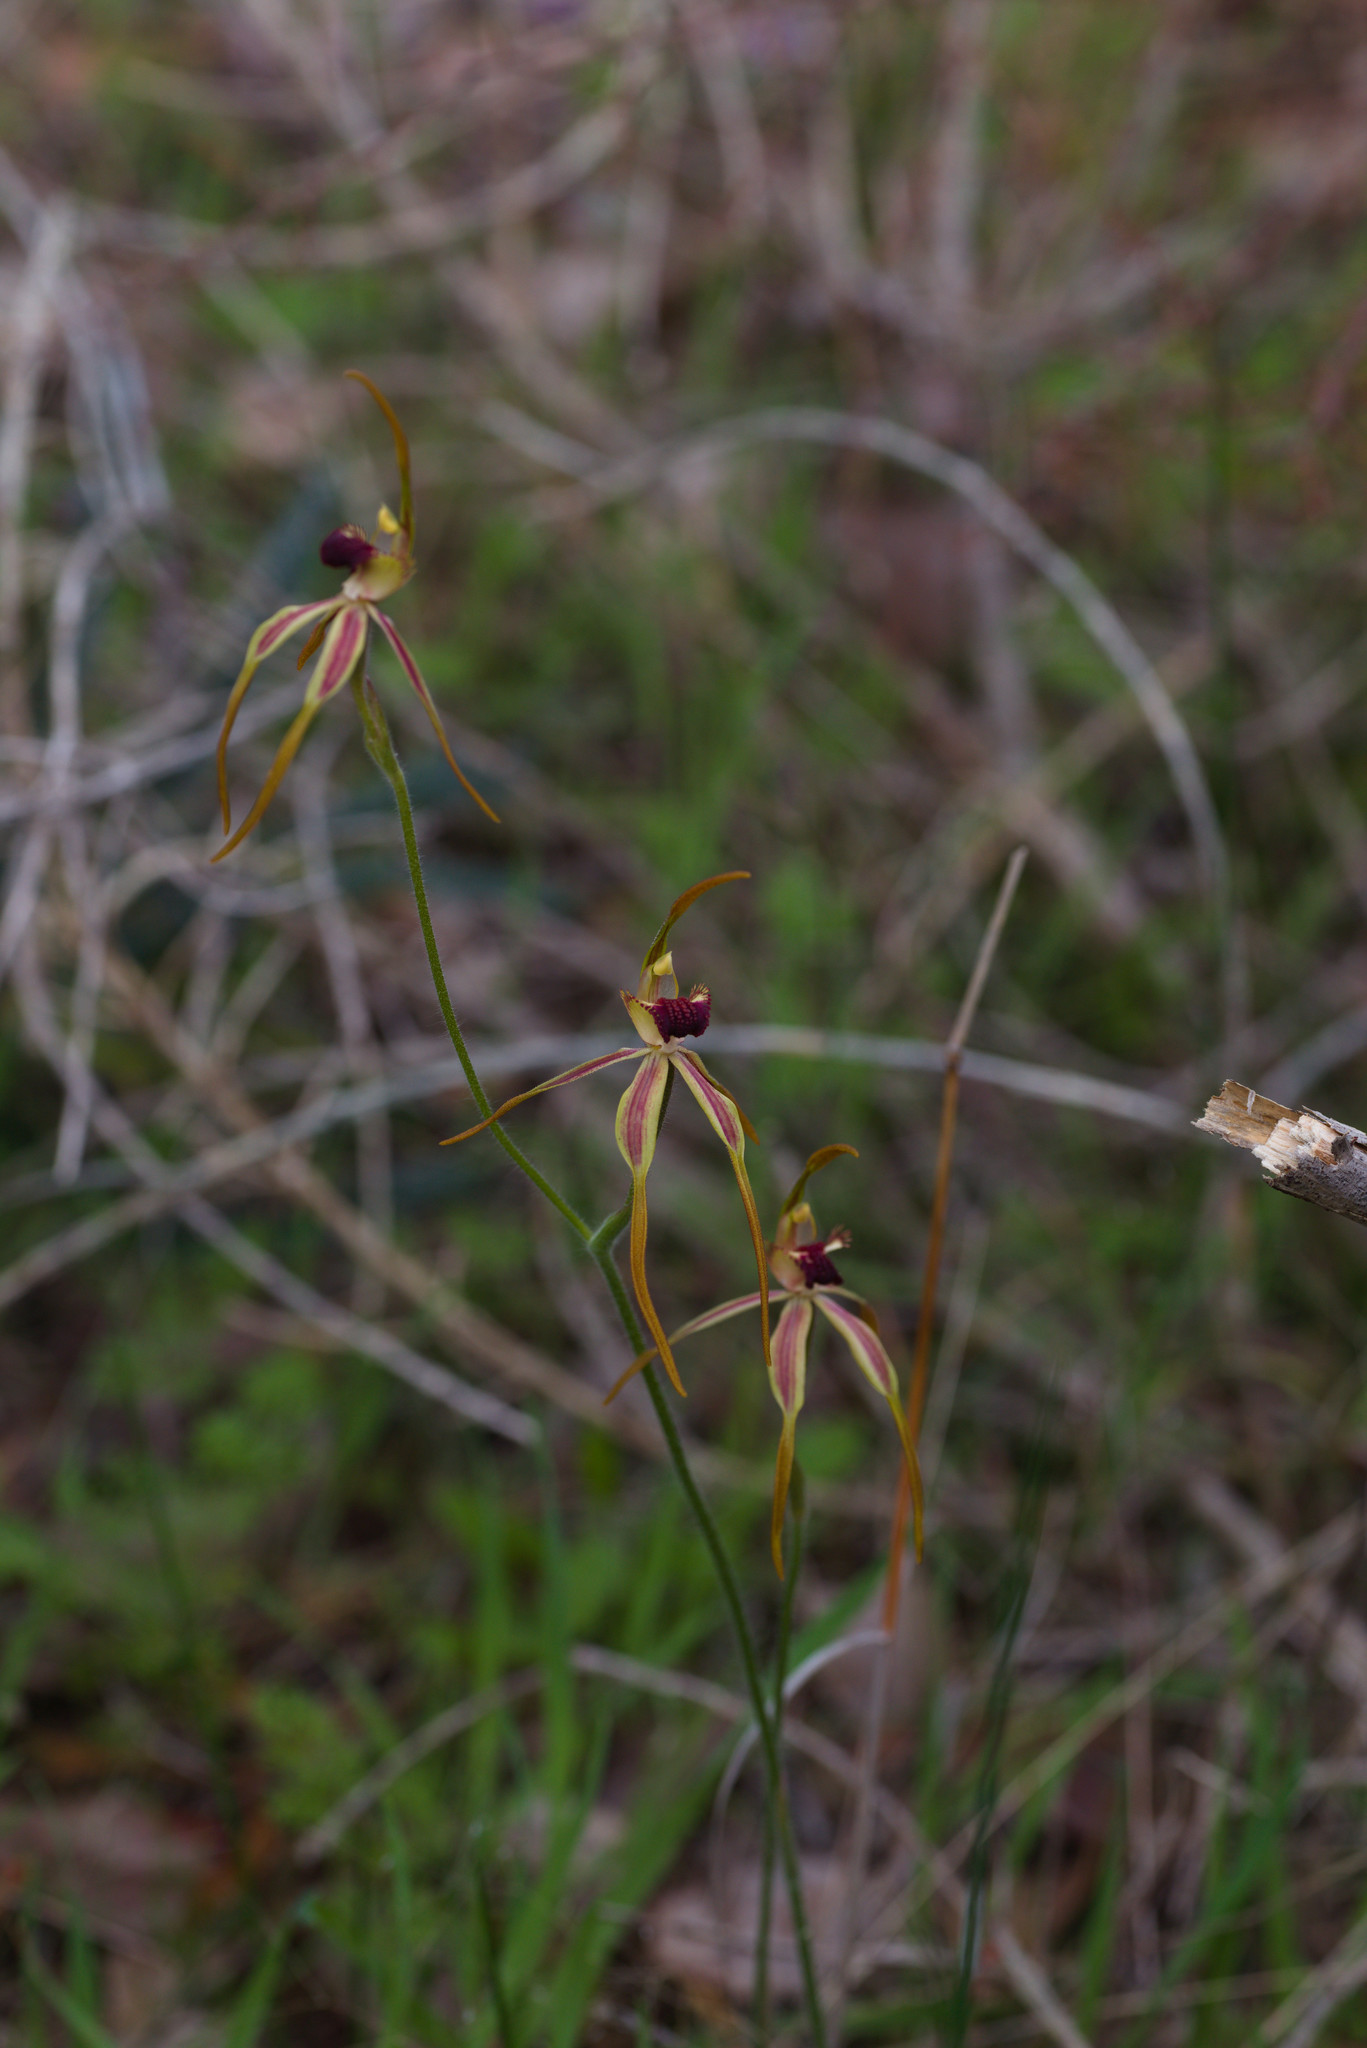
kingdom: Plantae
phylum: Tracheophyta
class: Liliopsida
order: Asparagales
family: Orchidaceae
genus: Caladenia
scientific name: Caladenia longiclavata
